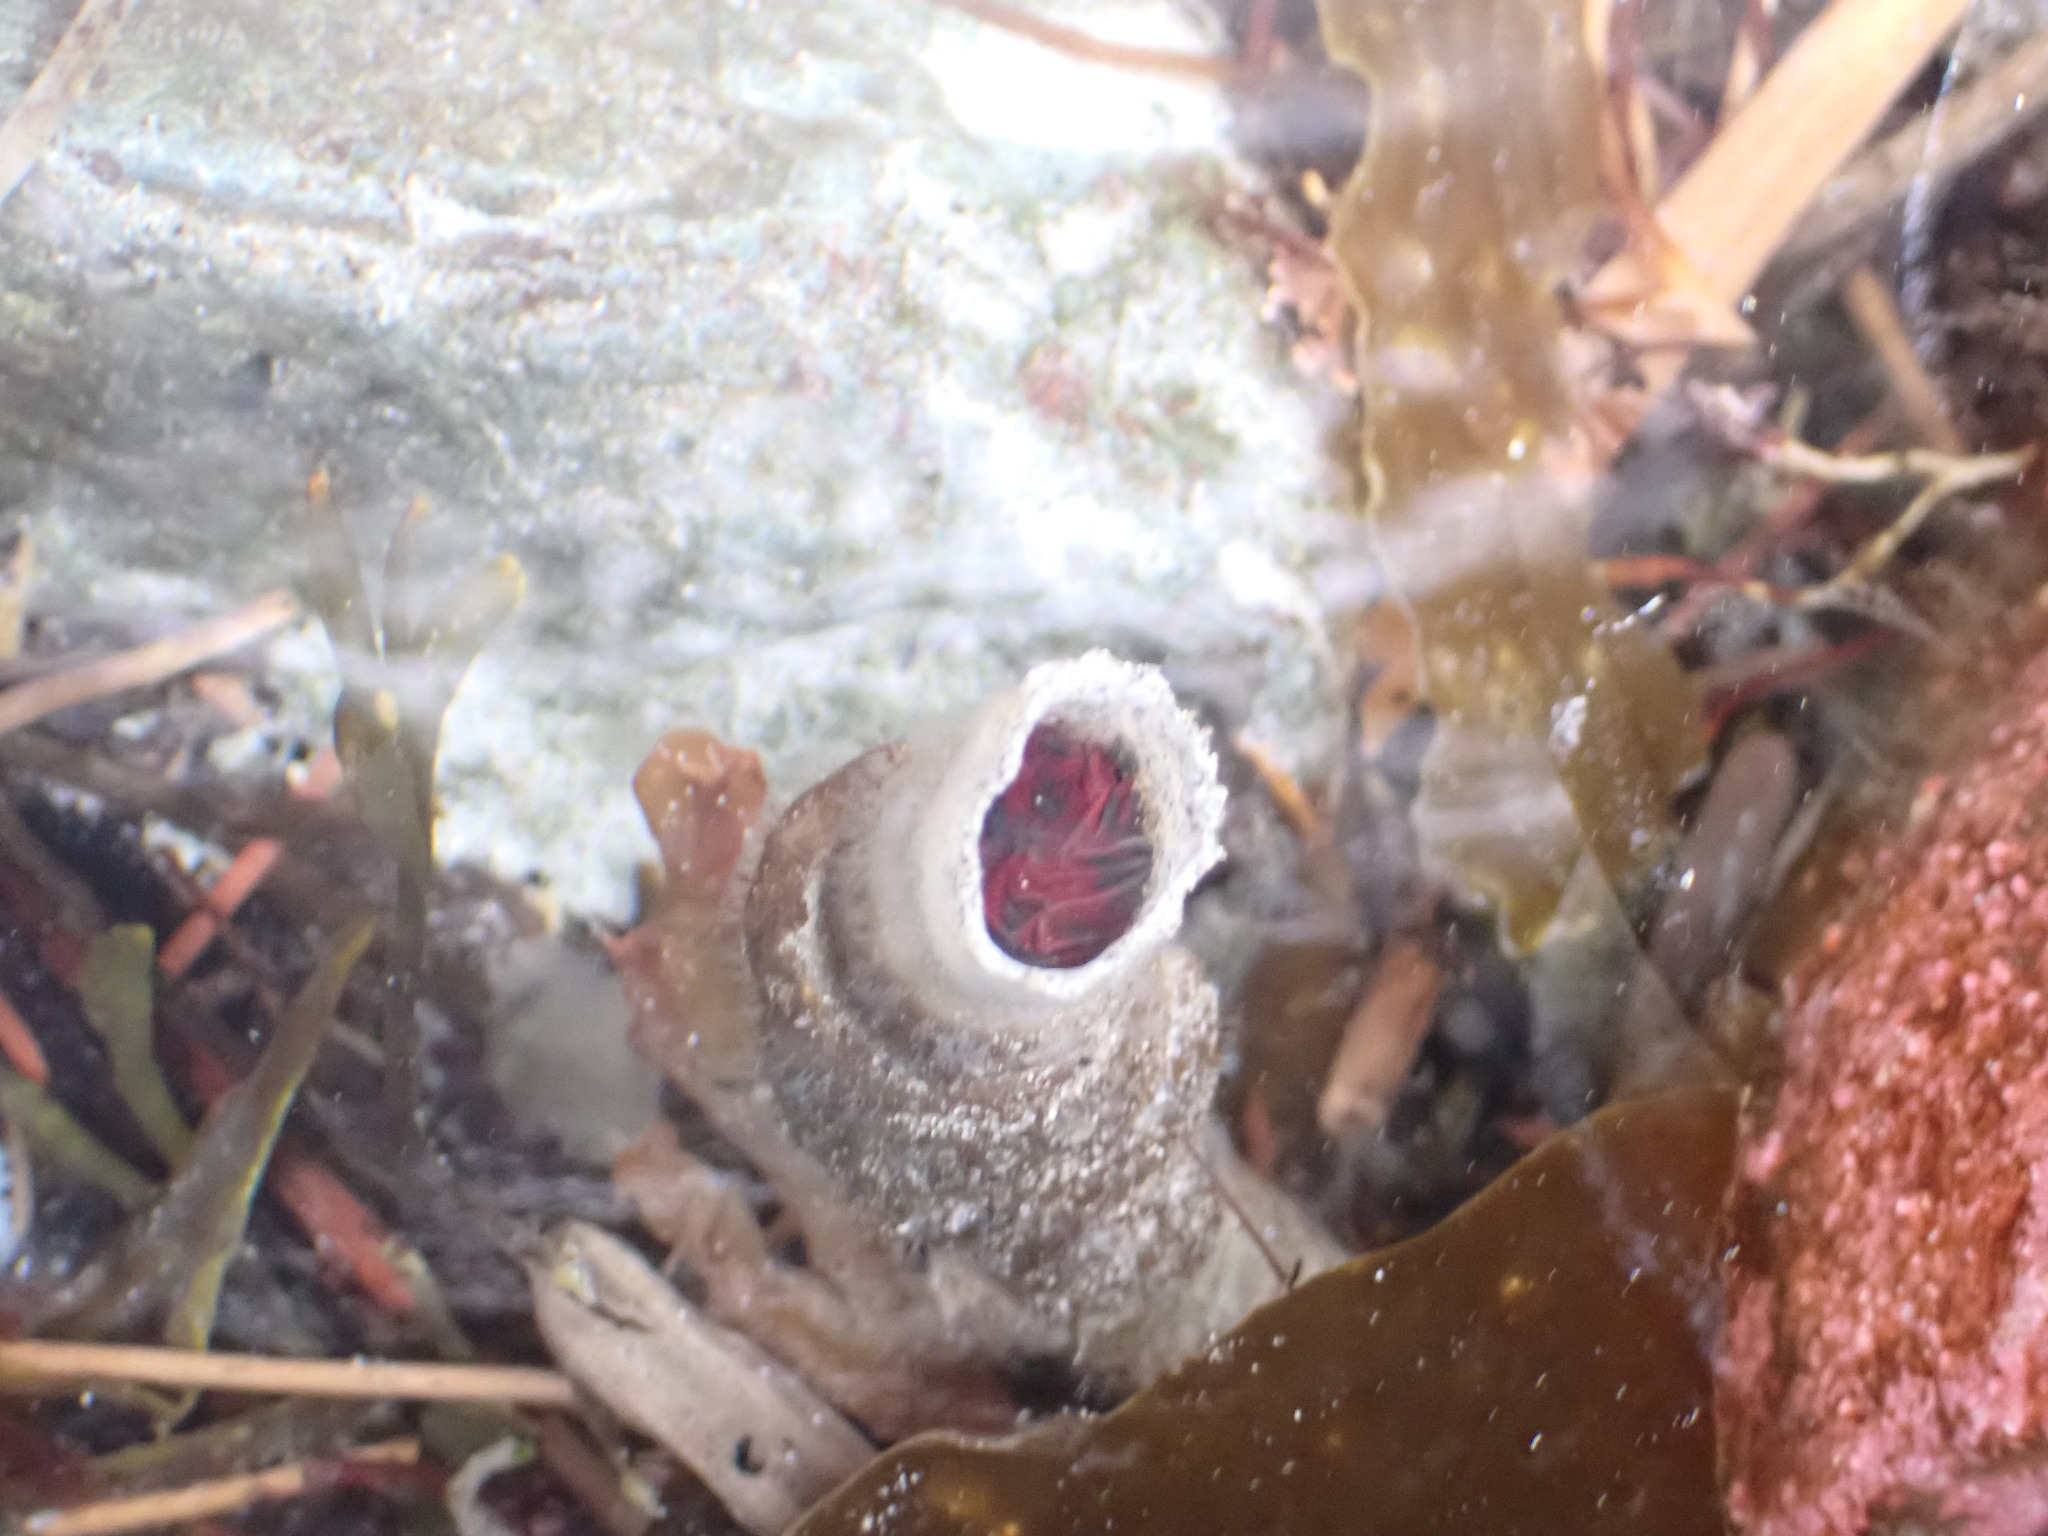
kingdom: Animalia
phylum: Annelida
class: Polychaeta
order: Sabellida
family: Sabellidae
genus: Eudistylia
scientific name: Eudistylia vancouveri
